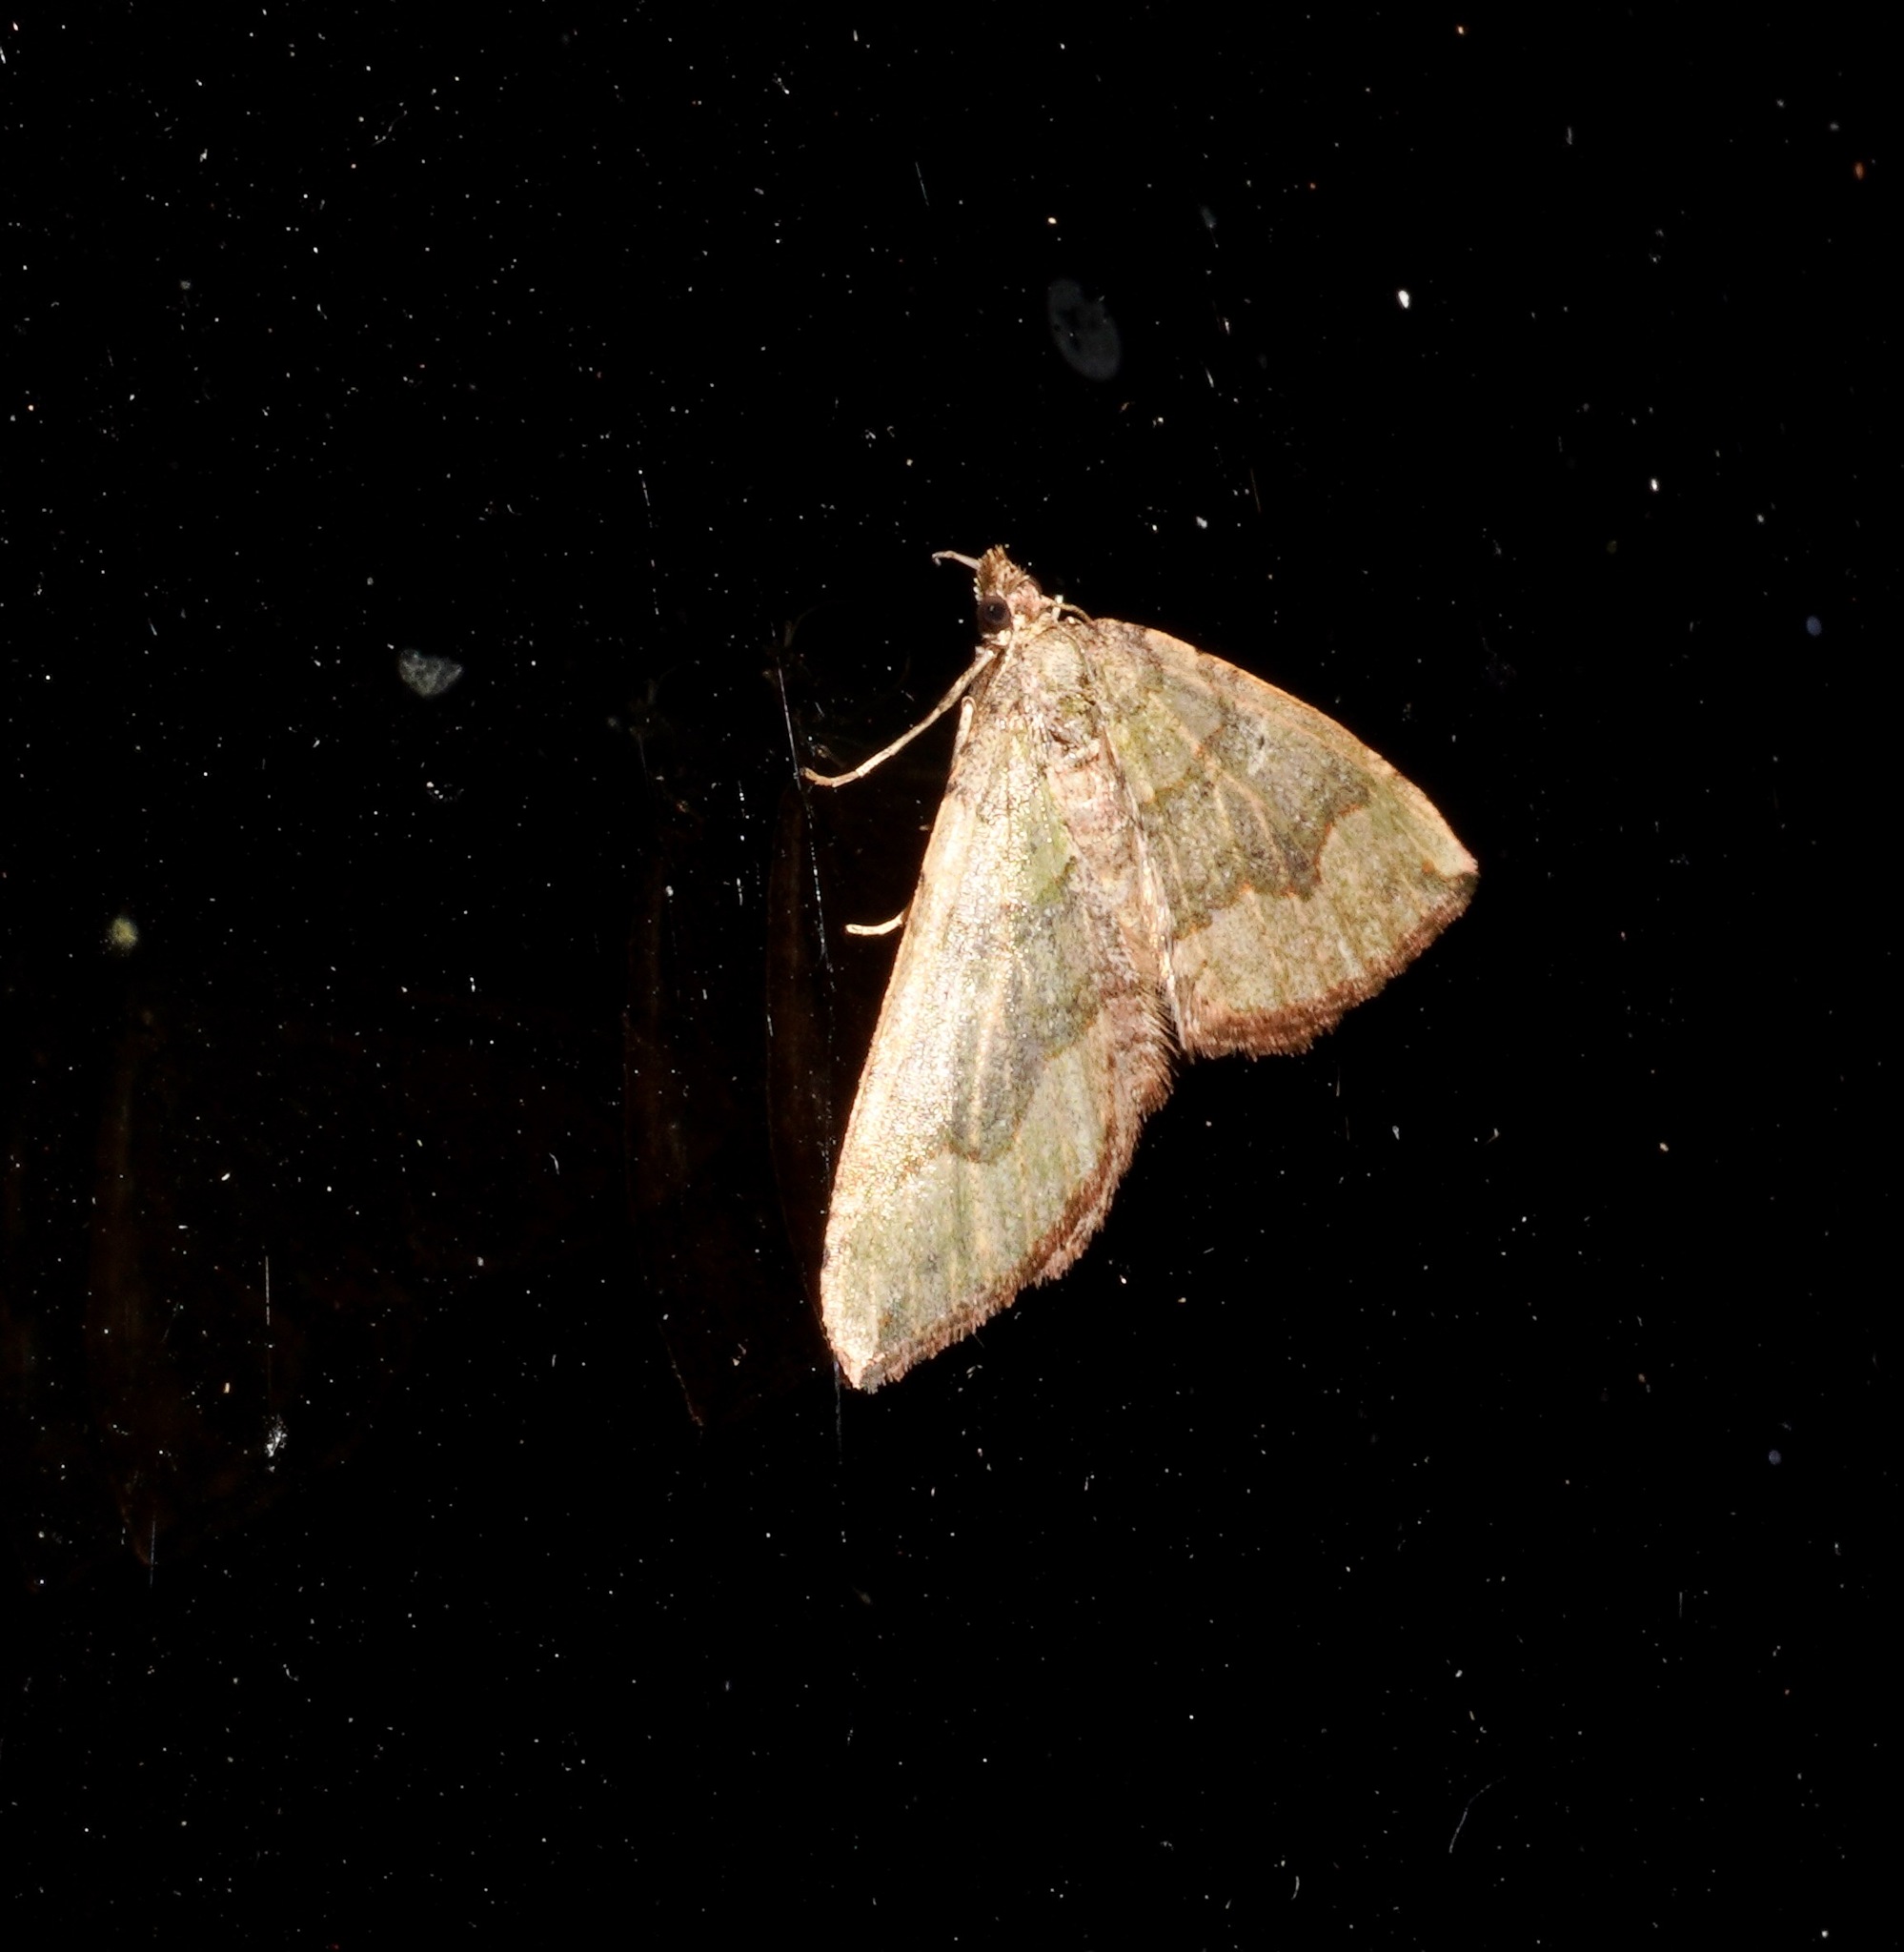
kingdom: Animalia
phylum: Arthropoda
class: Insecta
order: Lepidoptera
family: Geometridae
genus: Epyaxa
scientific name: Epyaxa rosearia
